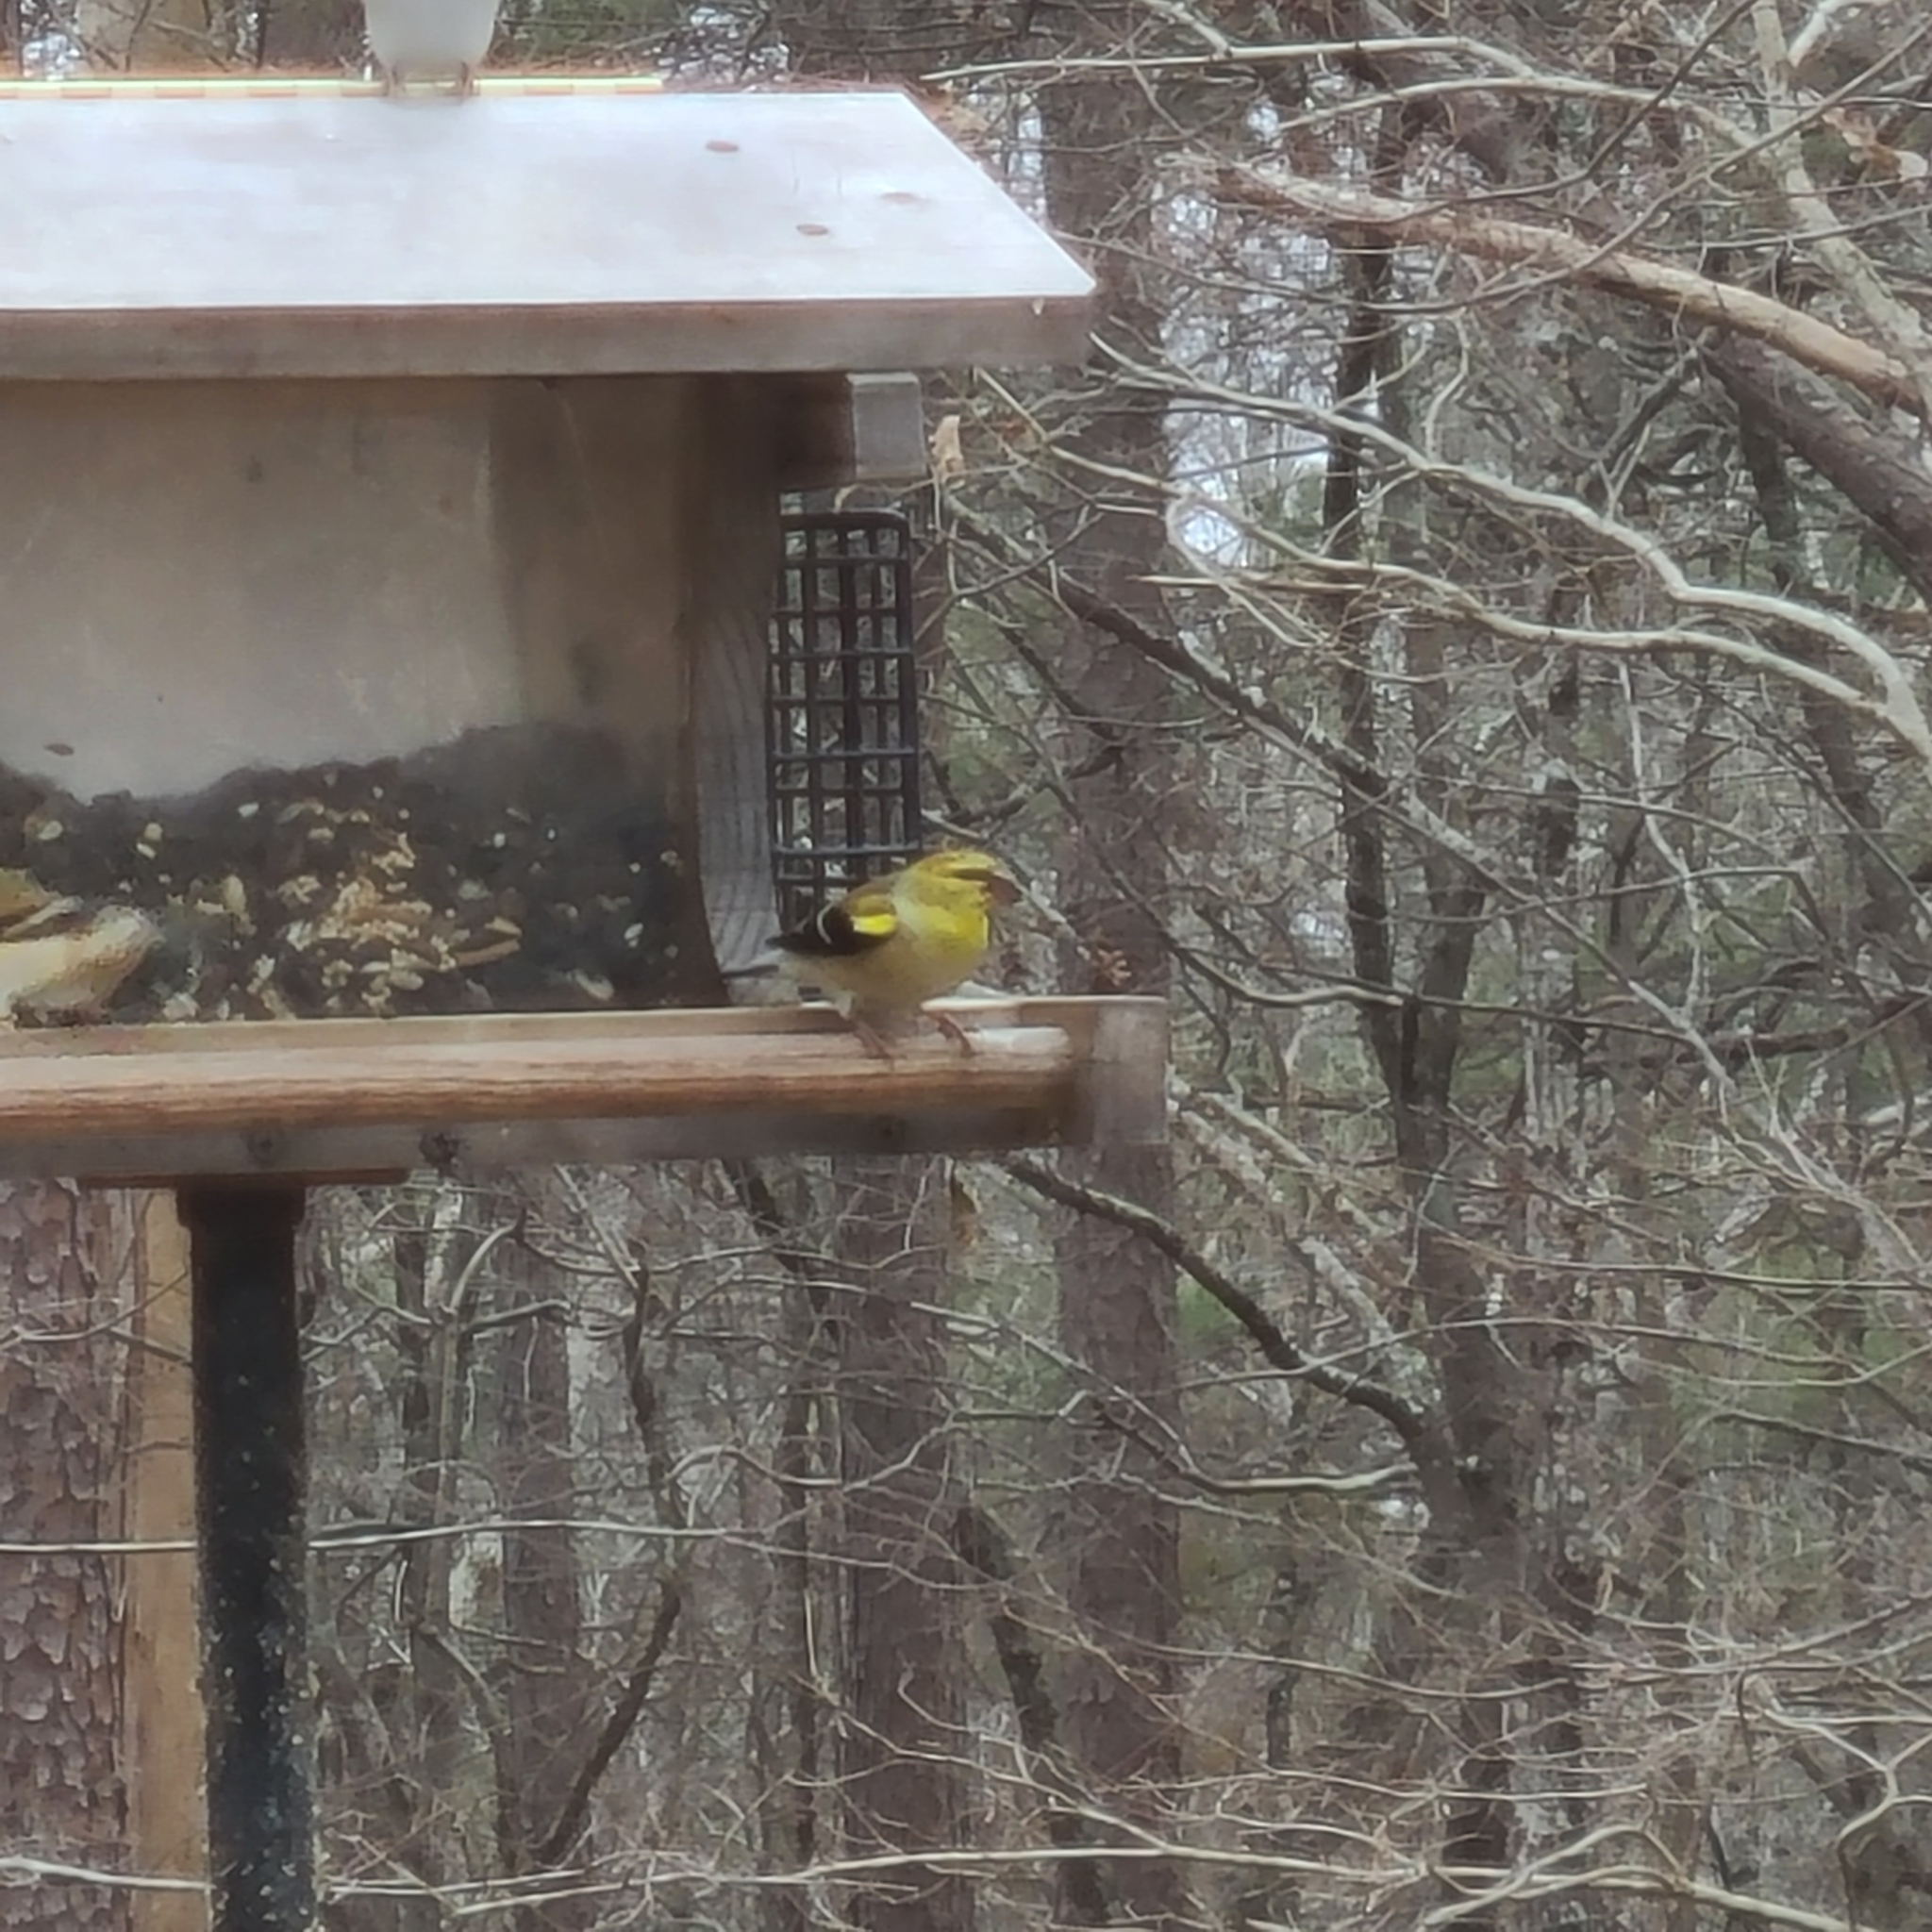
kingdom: Animalia
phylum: Chordata
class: Aves
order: Passeriformes
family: Fringillidae
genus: Spinus
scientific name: Spinus tristis
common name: American goldfinch
